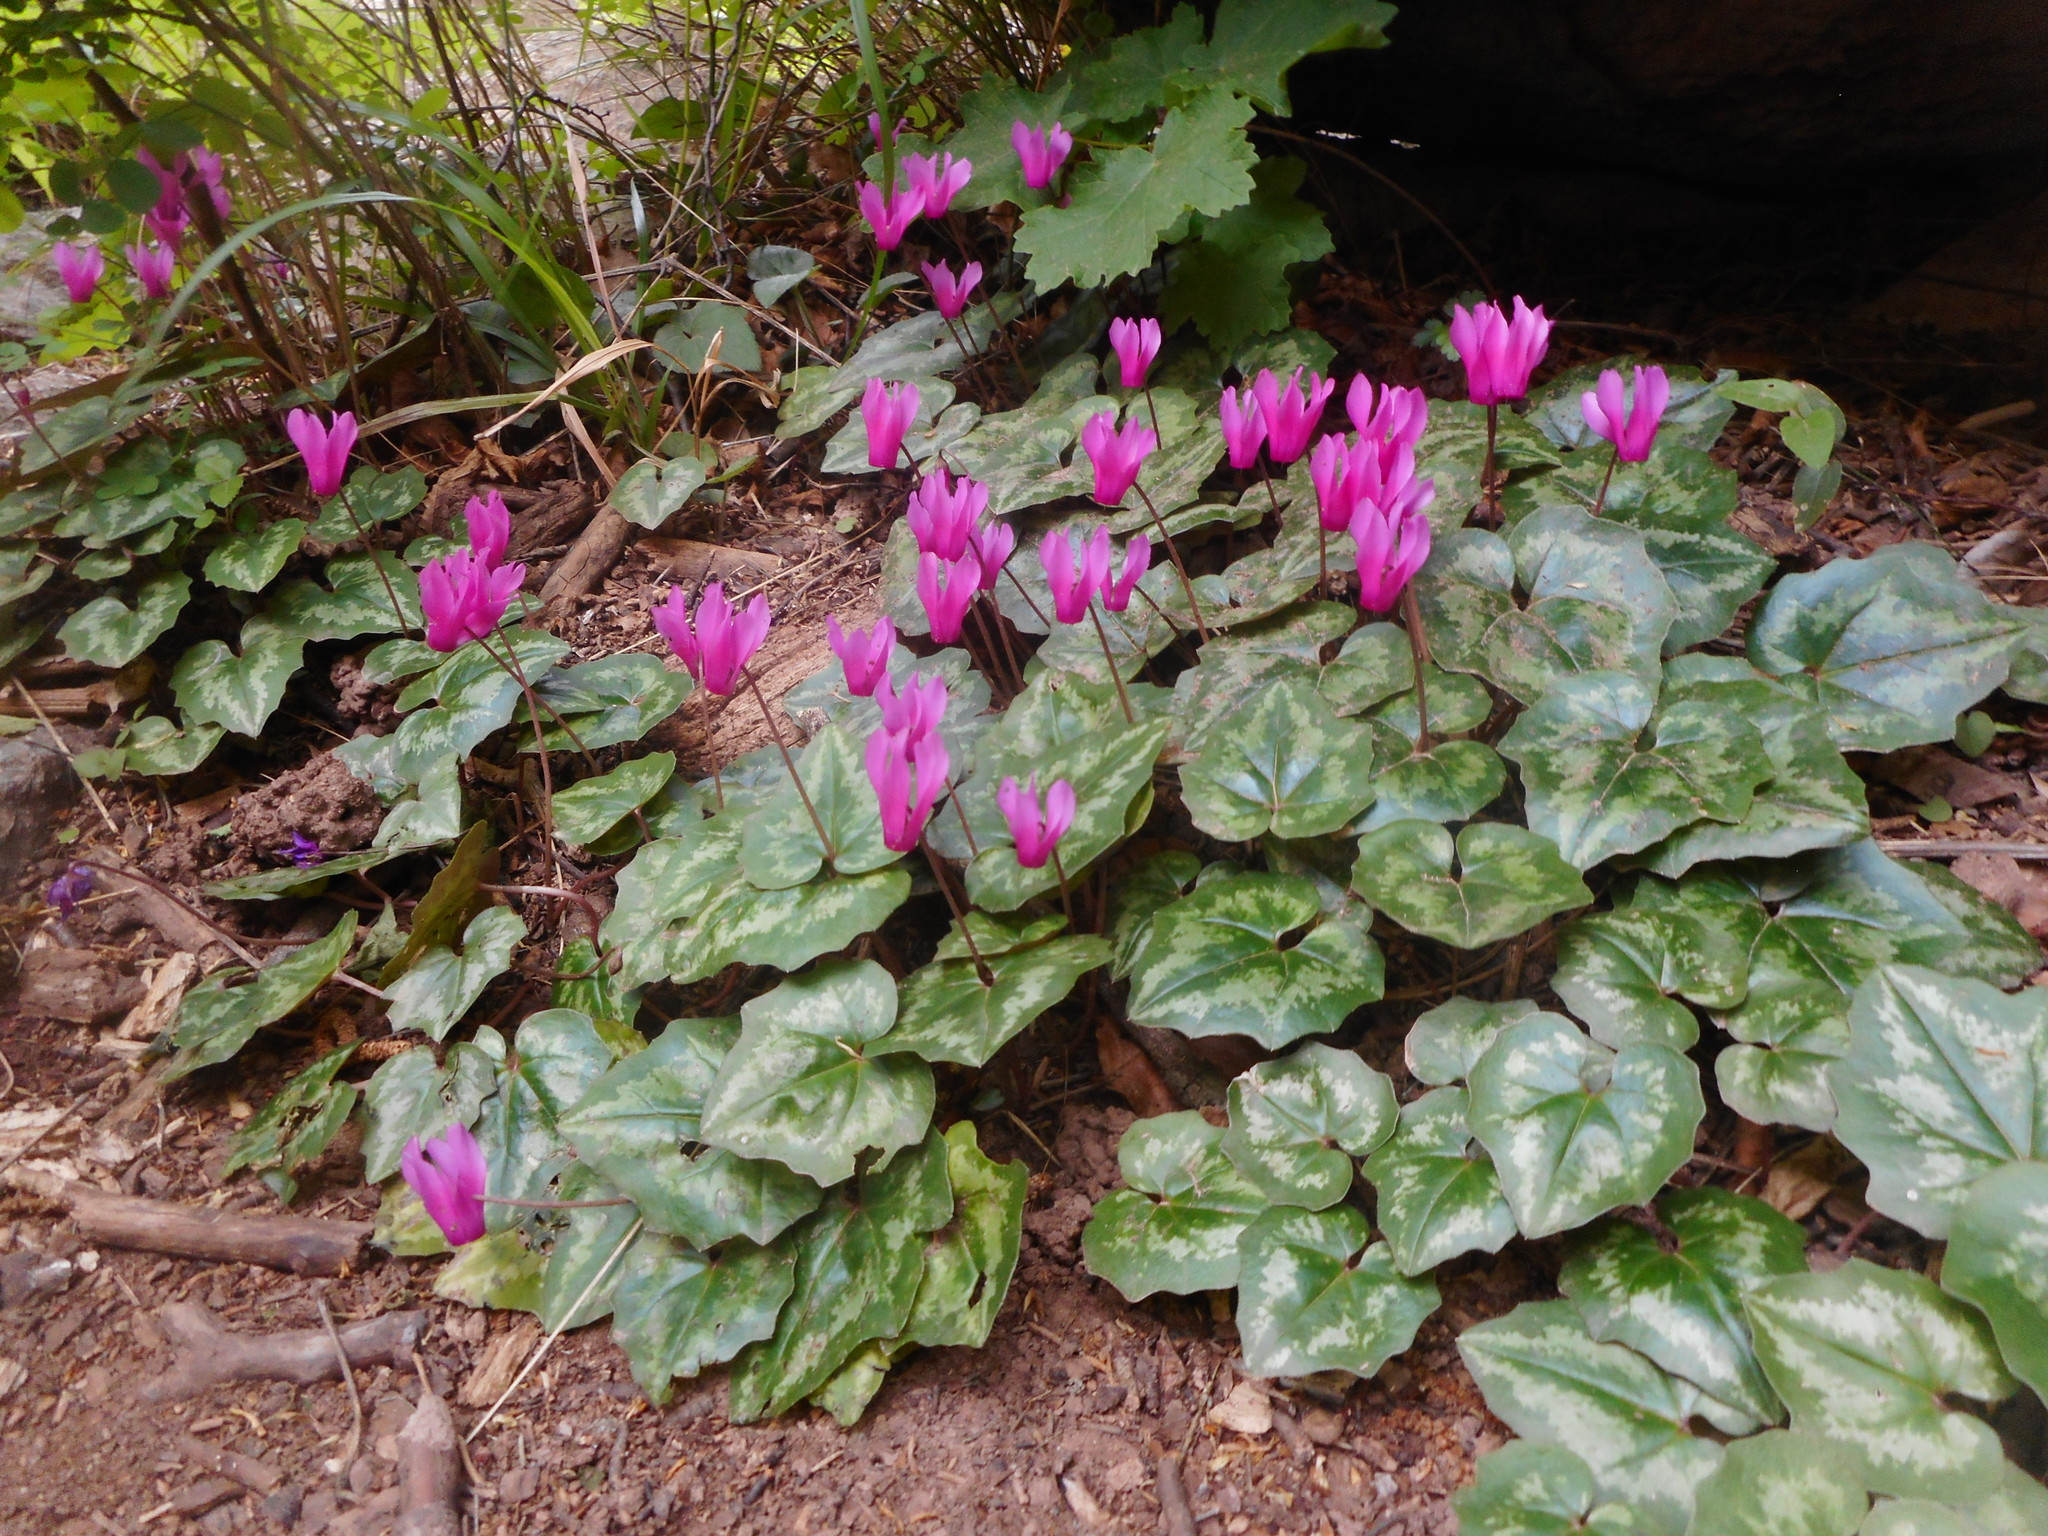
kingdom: Plantae
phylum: Tracheophyta
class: Magnoliopsida
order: Ericales
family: Primulaceae
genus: Cyclamen
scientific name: Cyclamen repandum
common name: Spring sowbread
